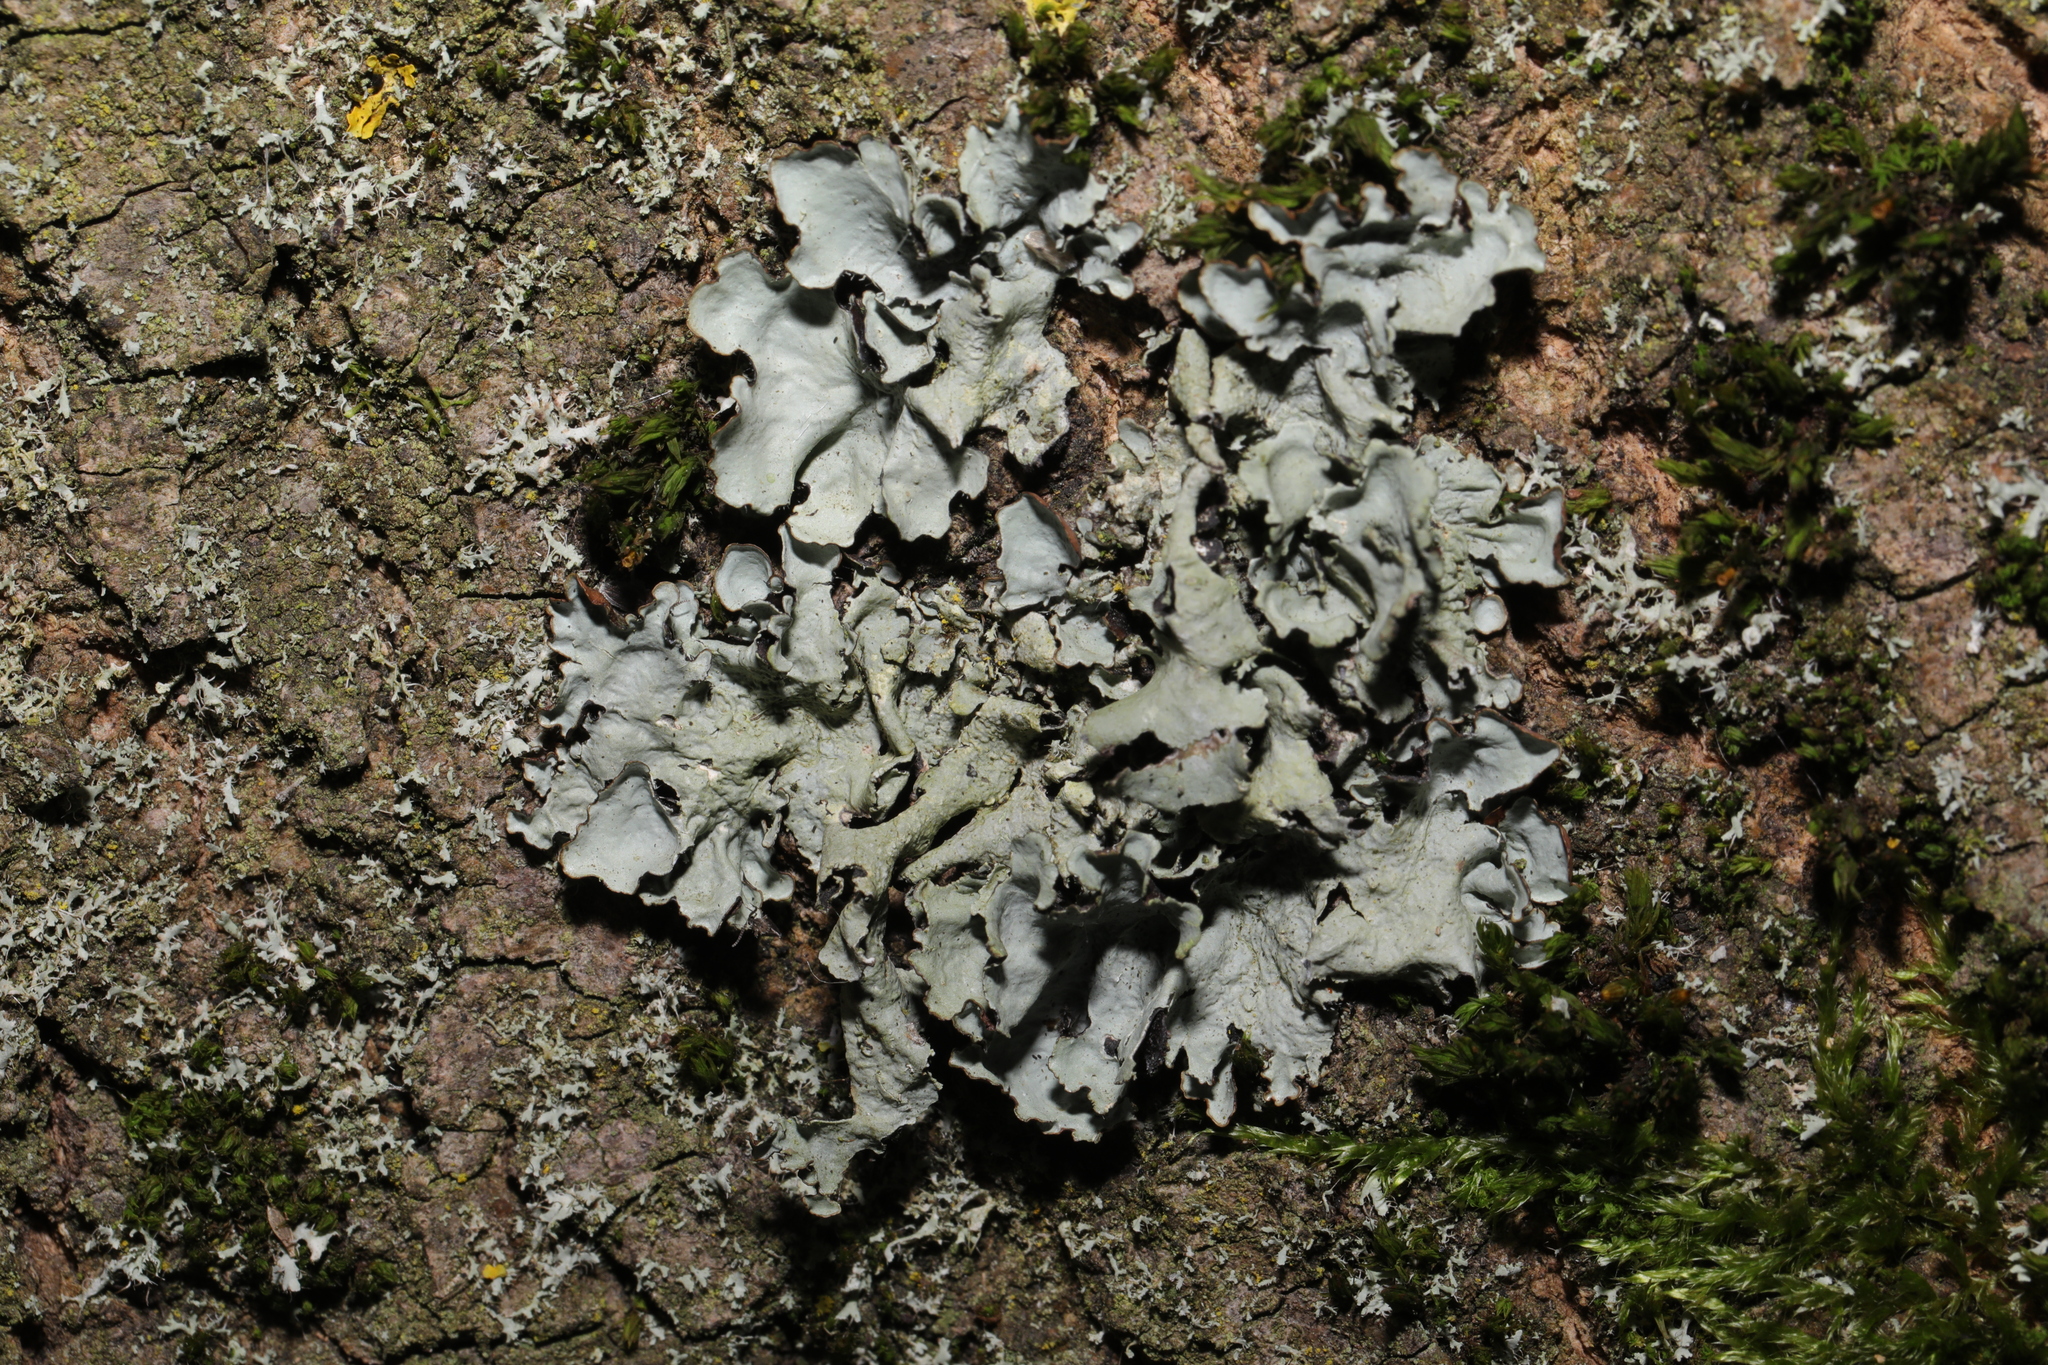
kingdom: Fungi
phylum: Ascomycota
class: Lecanoromycetes
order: Lecanorales
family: Parmeliaceae
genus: Parmotrema
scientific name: Parmotrema perlatum
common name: Black stone flower
